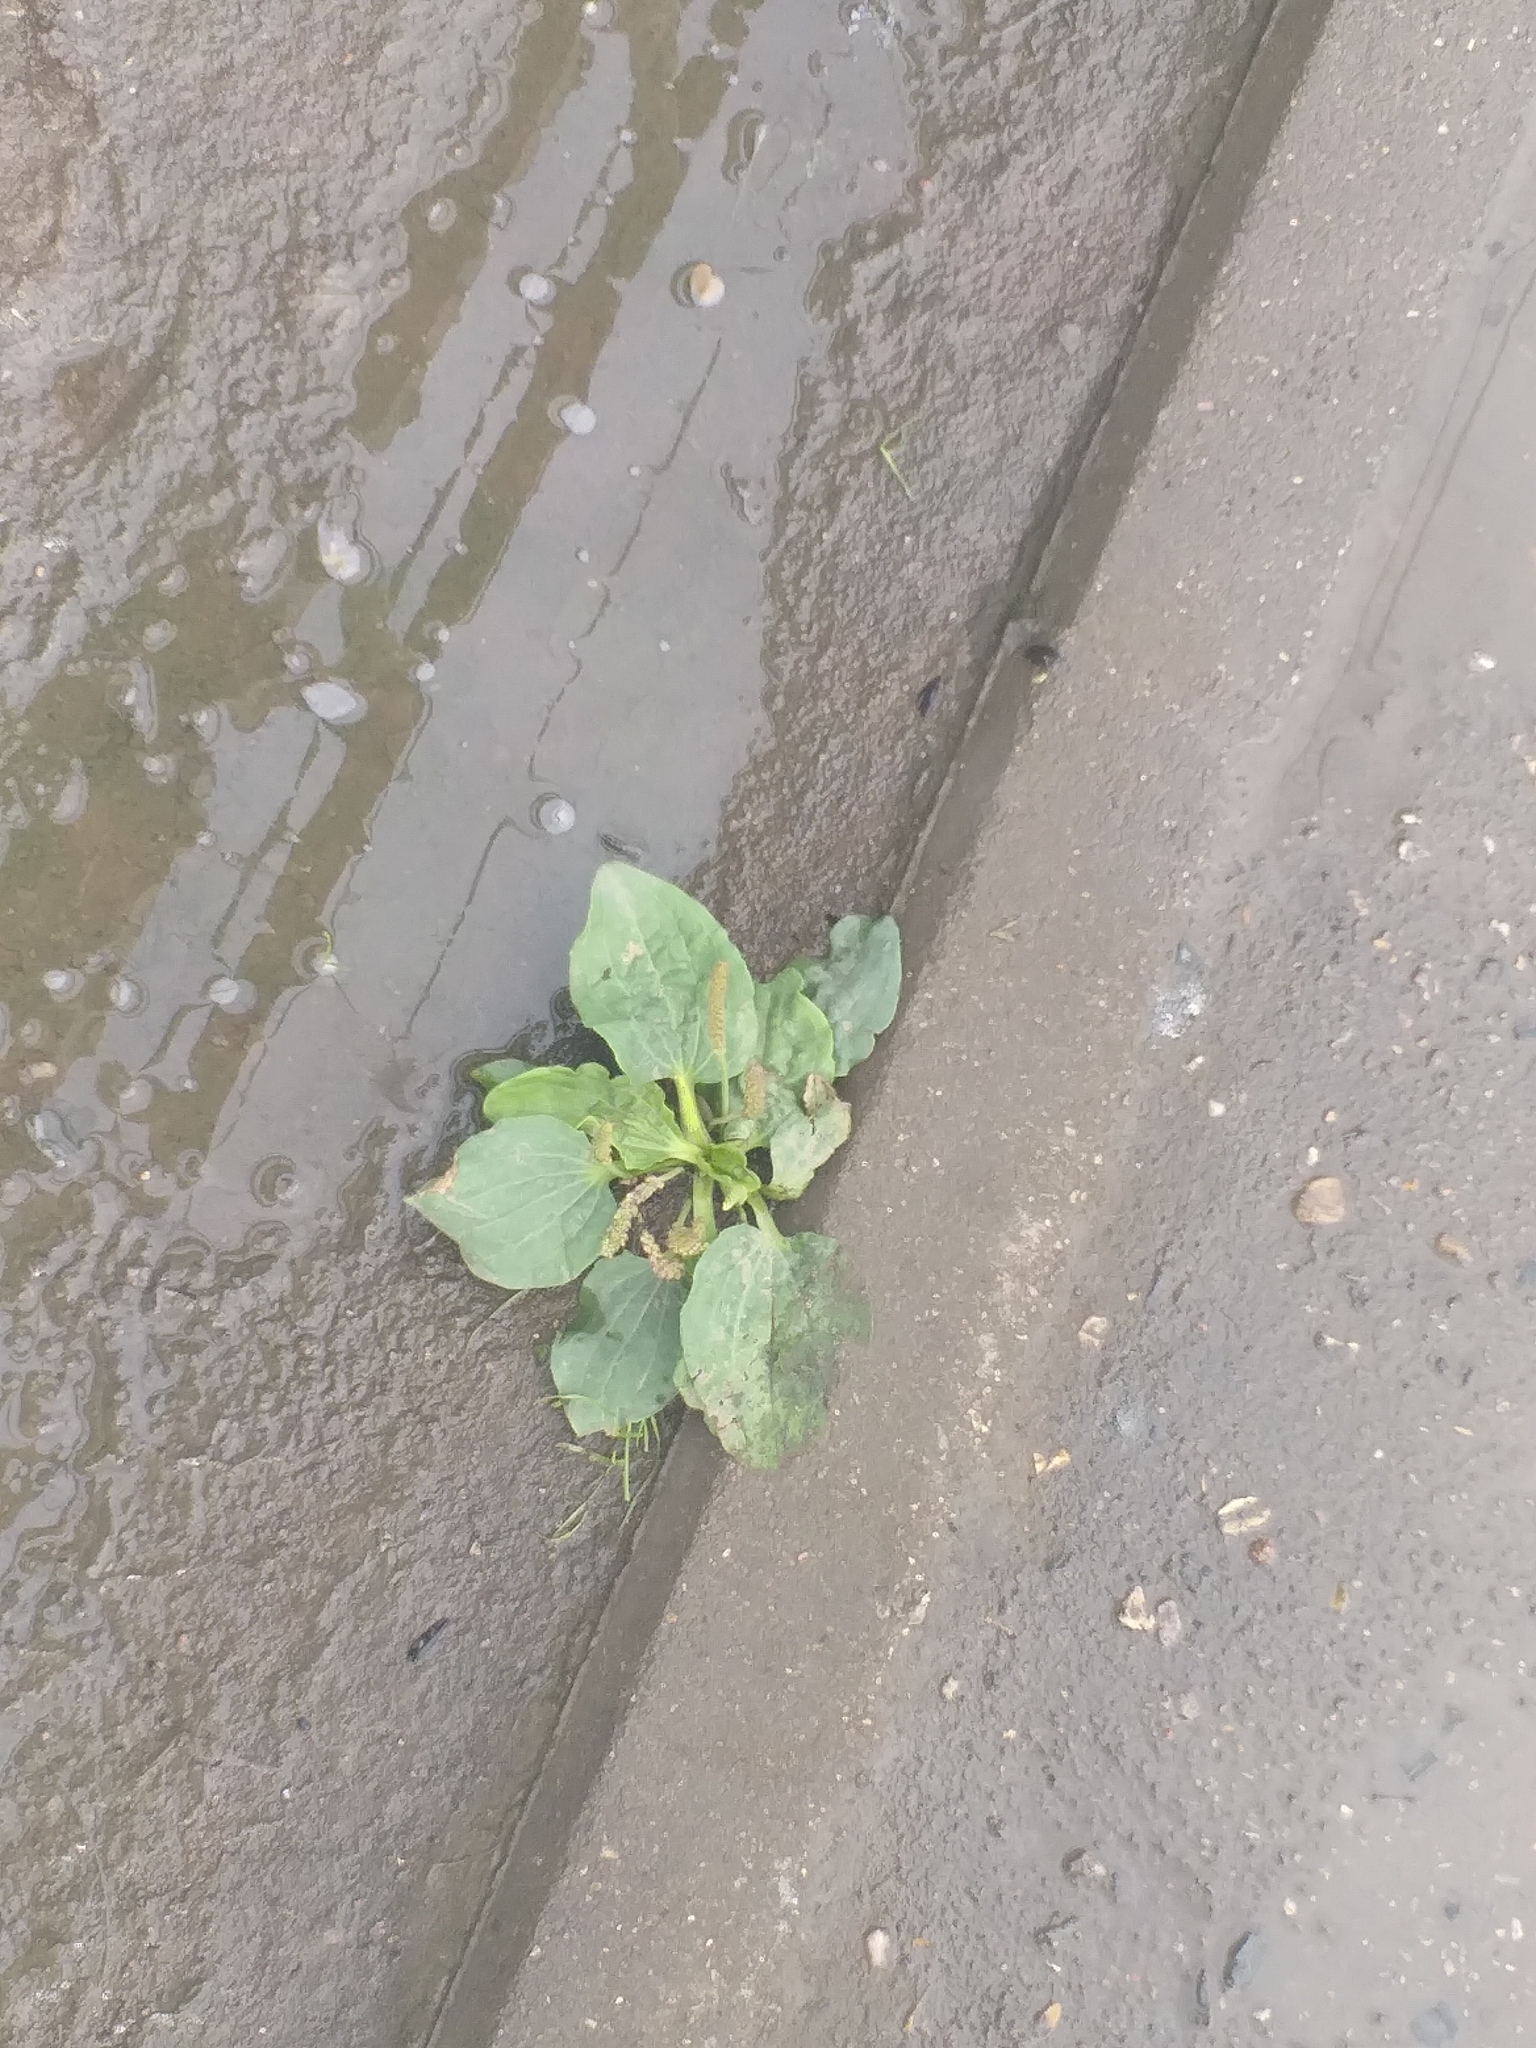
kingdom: Plantae
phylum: Tracheophyta
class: Magnoliopsida
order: Lamiales
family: Plantaginaceae
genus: Plantago
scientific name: Plantago major
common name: Common plantain
